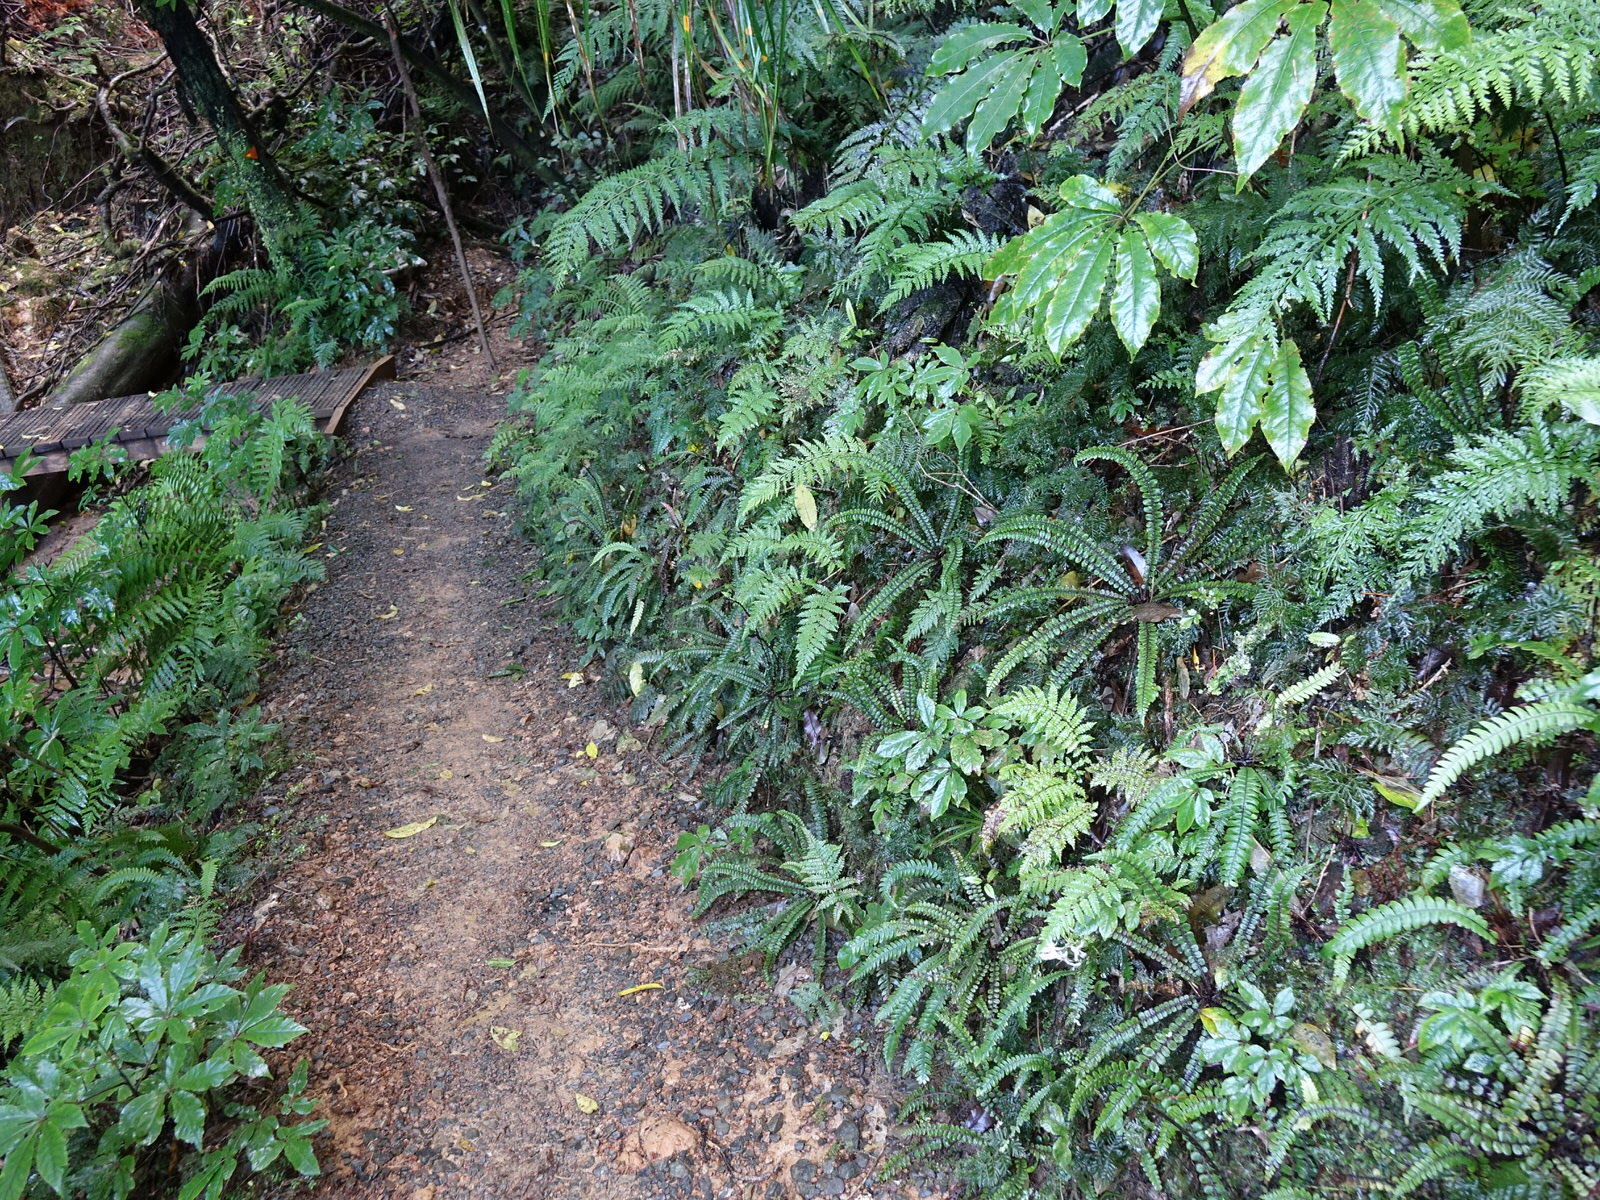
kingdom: Plantae
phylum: Tracheophyta
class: Polypodiopsida
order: Polypodiales
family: Blechnaceae
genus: Cranfillia
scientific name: Cranfillia fluviatilis
